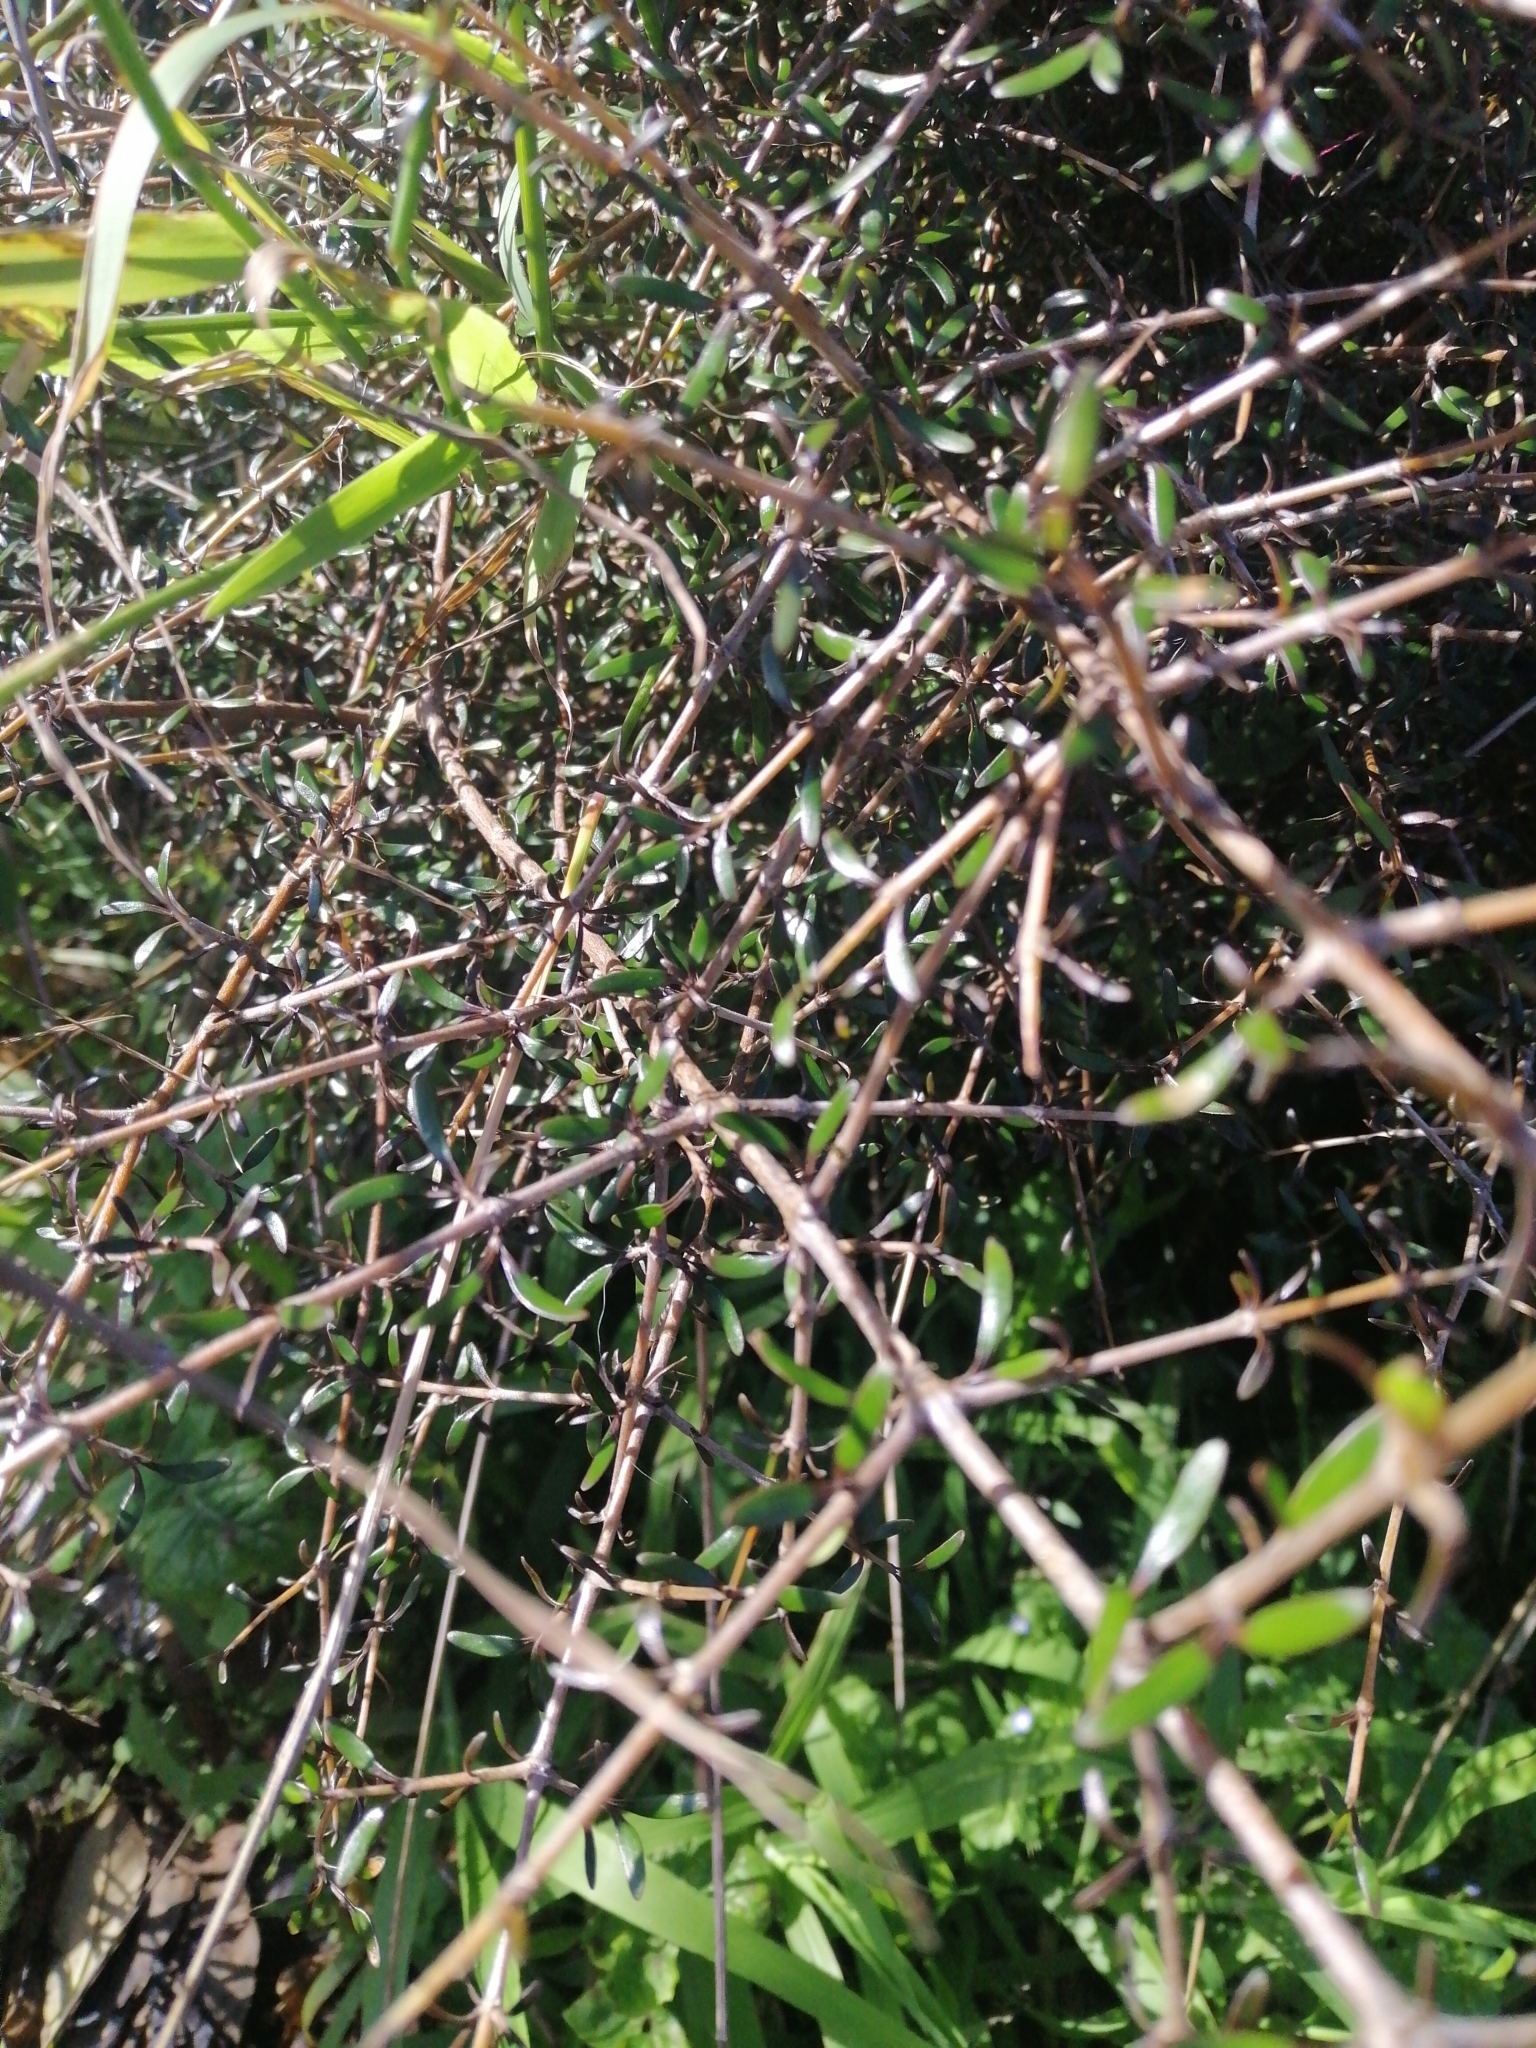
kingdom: Plantae
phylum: Tracheophyta
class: Magnoliopsida
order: Gentianales
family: Rubiaceae
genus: Coprosma
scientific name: Coprosma propinqua
